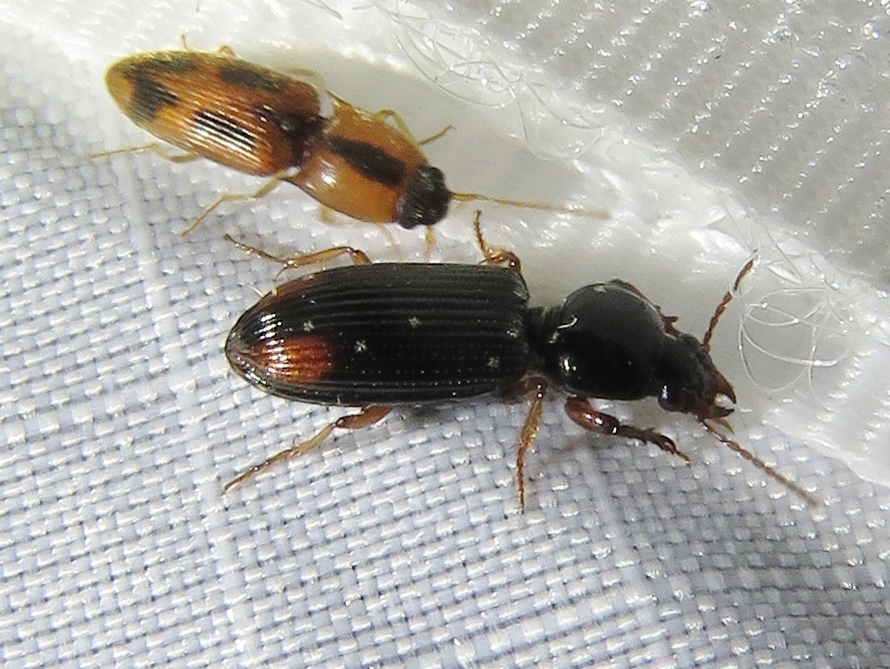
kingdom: Animalia
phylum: Arthropoda
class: Insecta
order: Coleoptera
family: Carabidae
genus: Aspidoglossa
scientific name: Aspidoglossa subangulata
